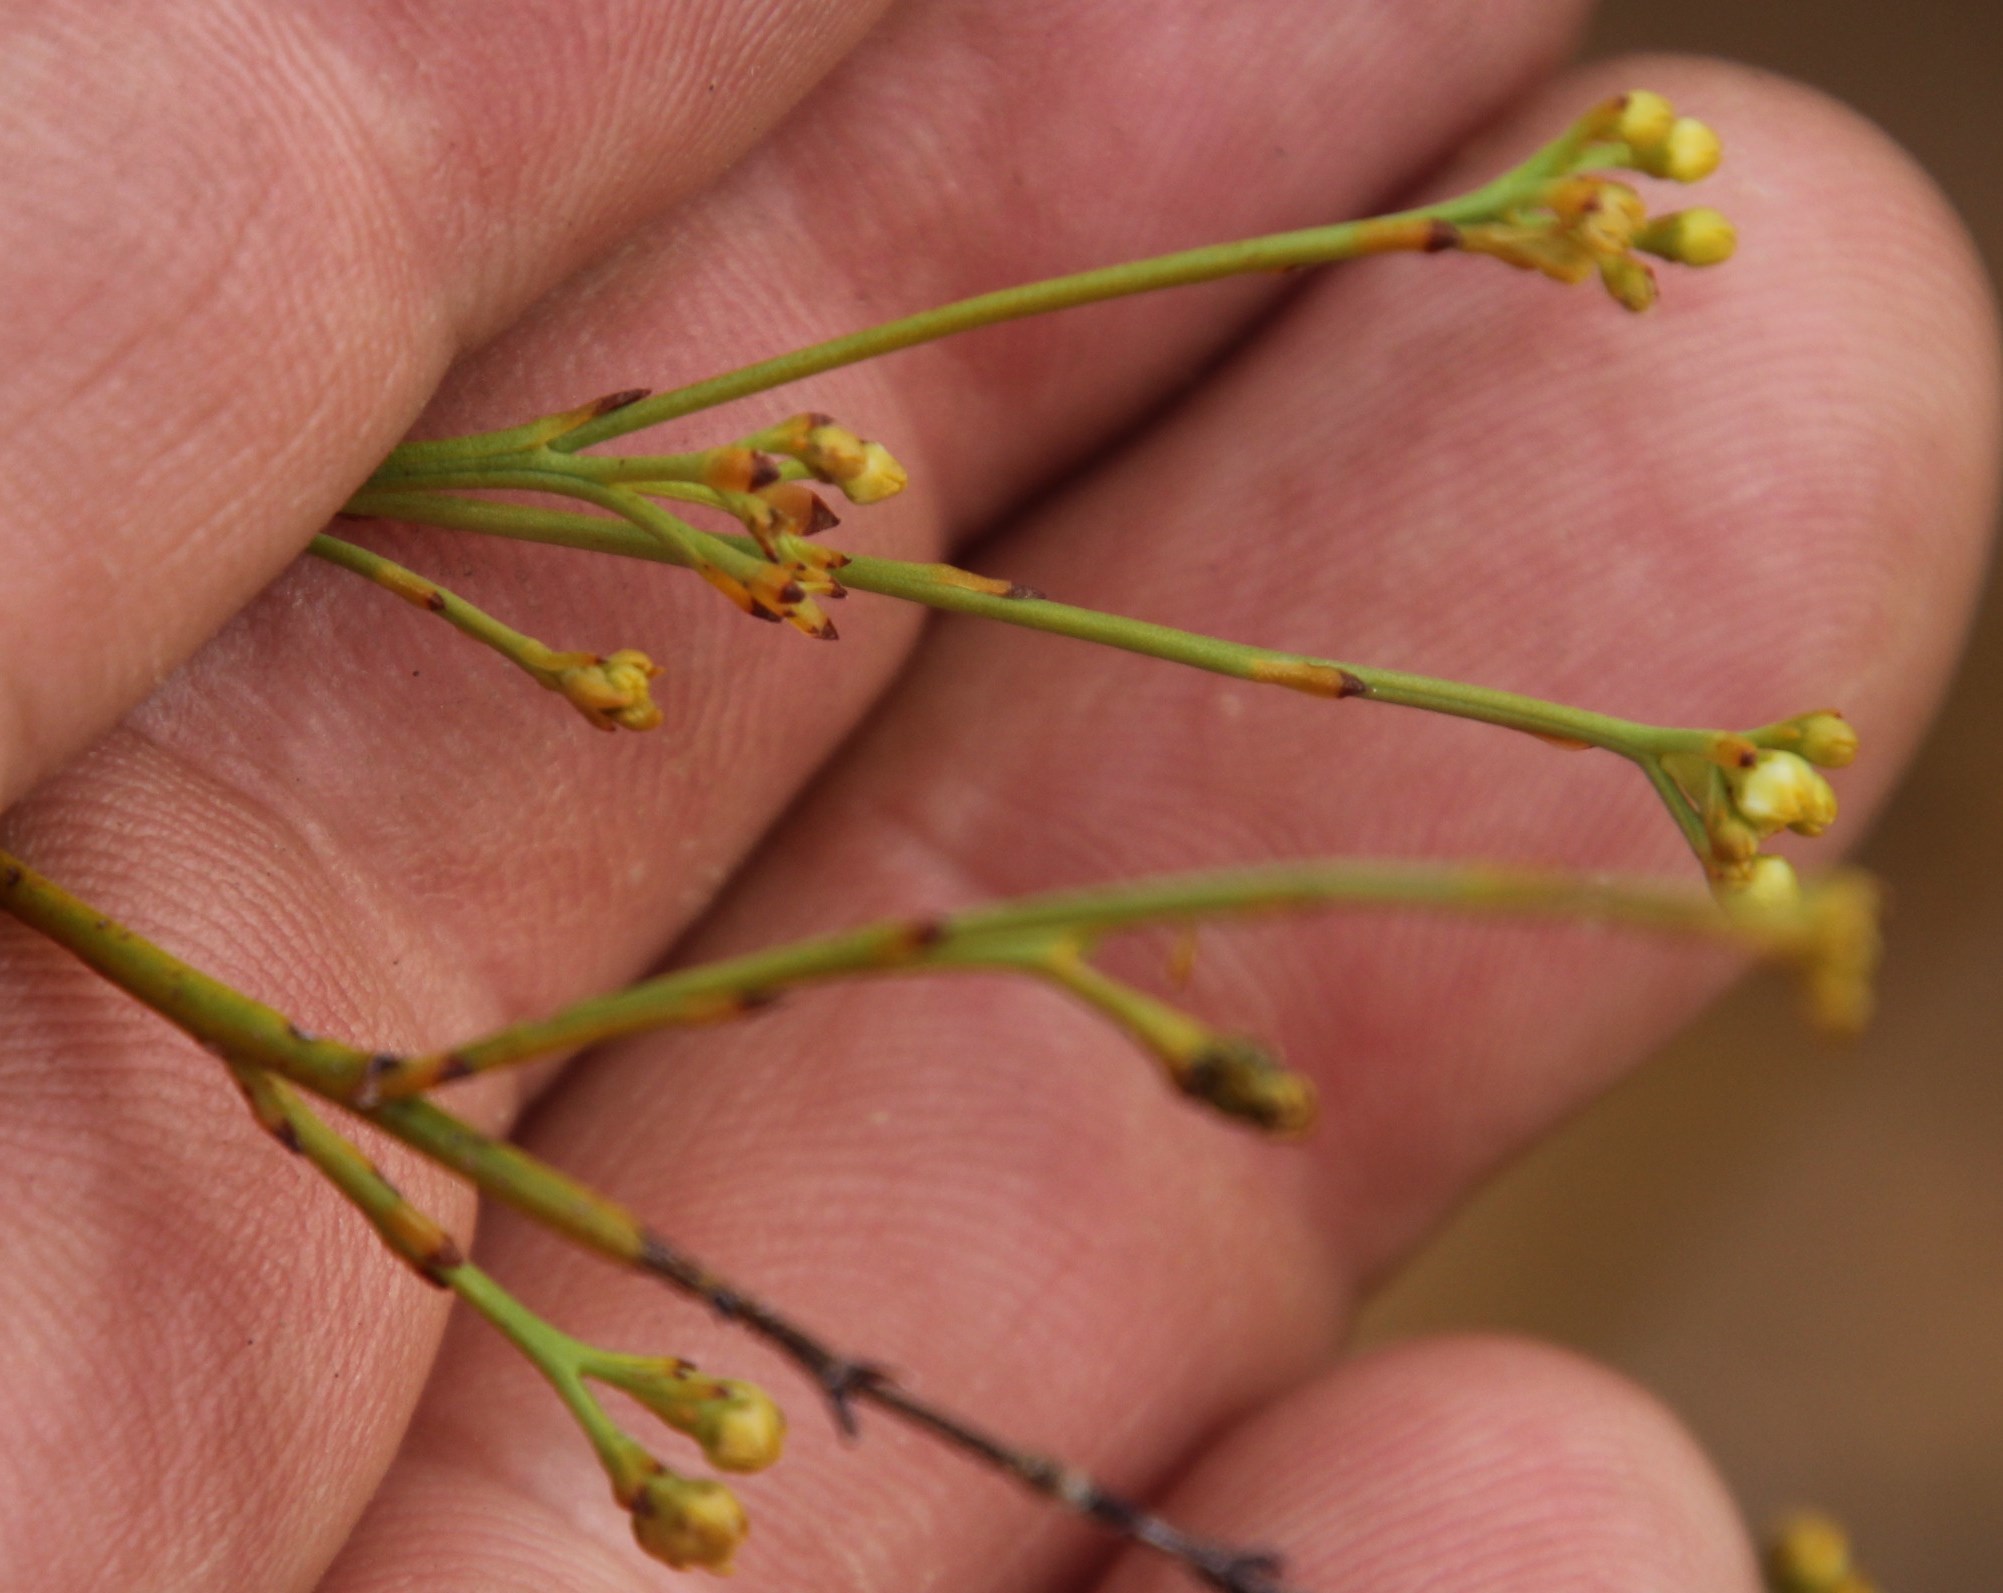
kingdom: Plantae
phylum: Tracheophyta
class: Magnoliopsida
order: Santalales
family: Thesiaceae
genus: Thesium
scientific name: Thesium virgatum
